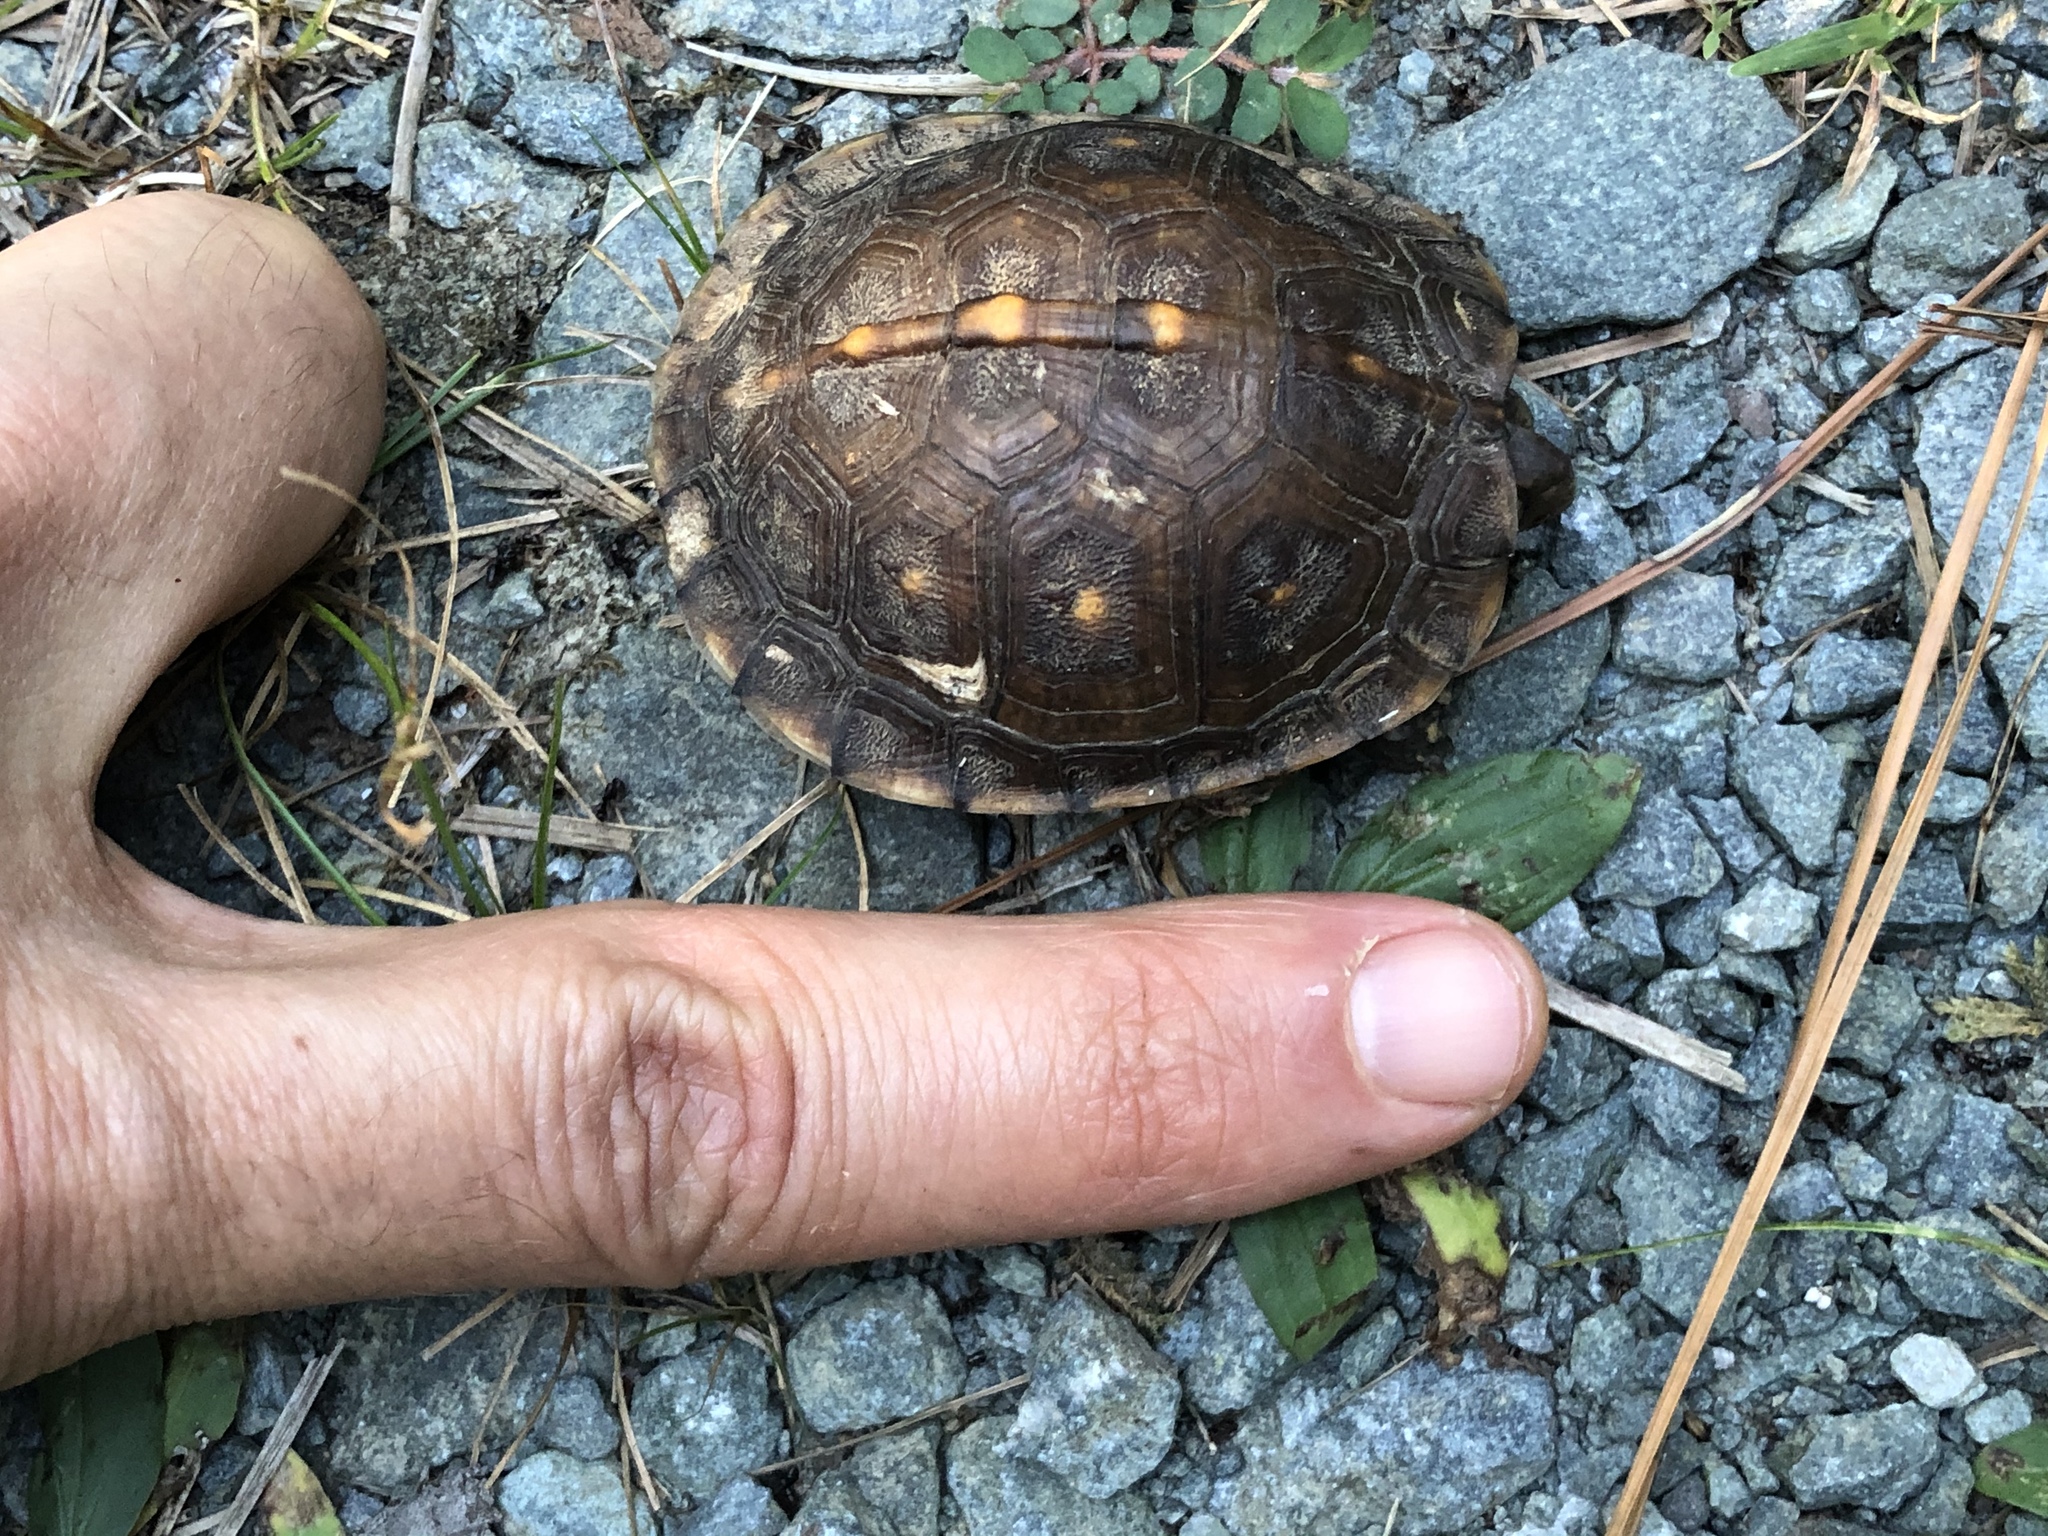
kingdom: Animalia
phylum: Chordata
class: Testudines
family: Emydidae
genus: Terrapene
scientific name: Terrapene carolina
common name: Common box turtle
